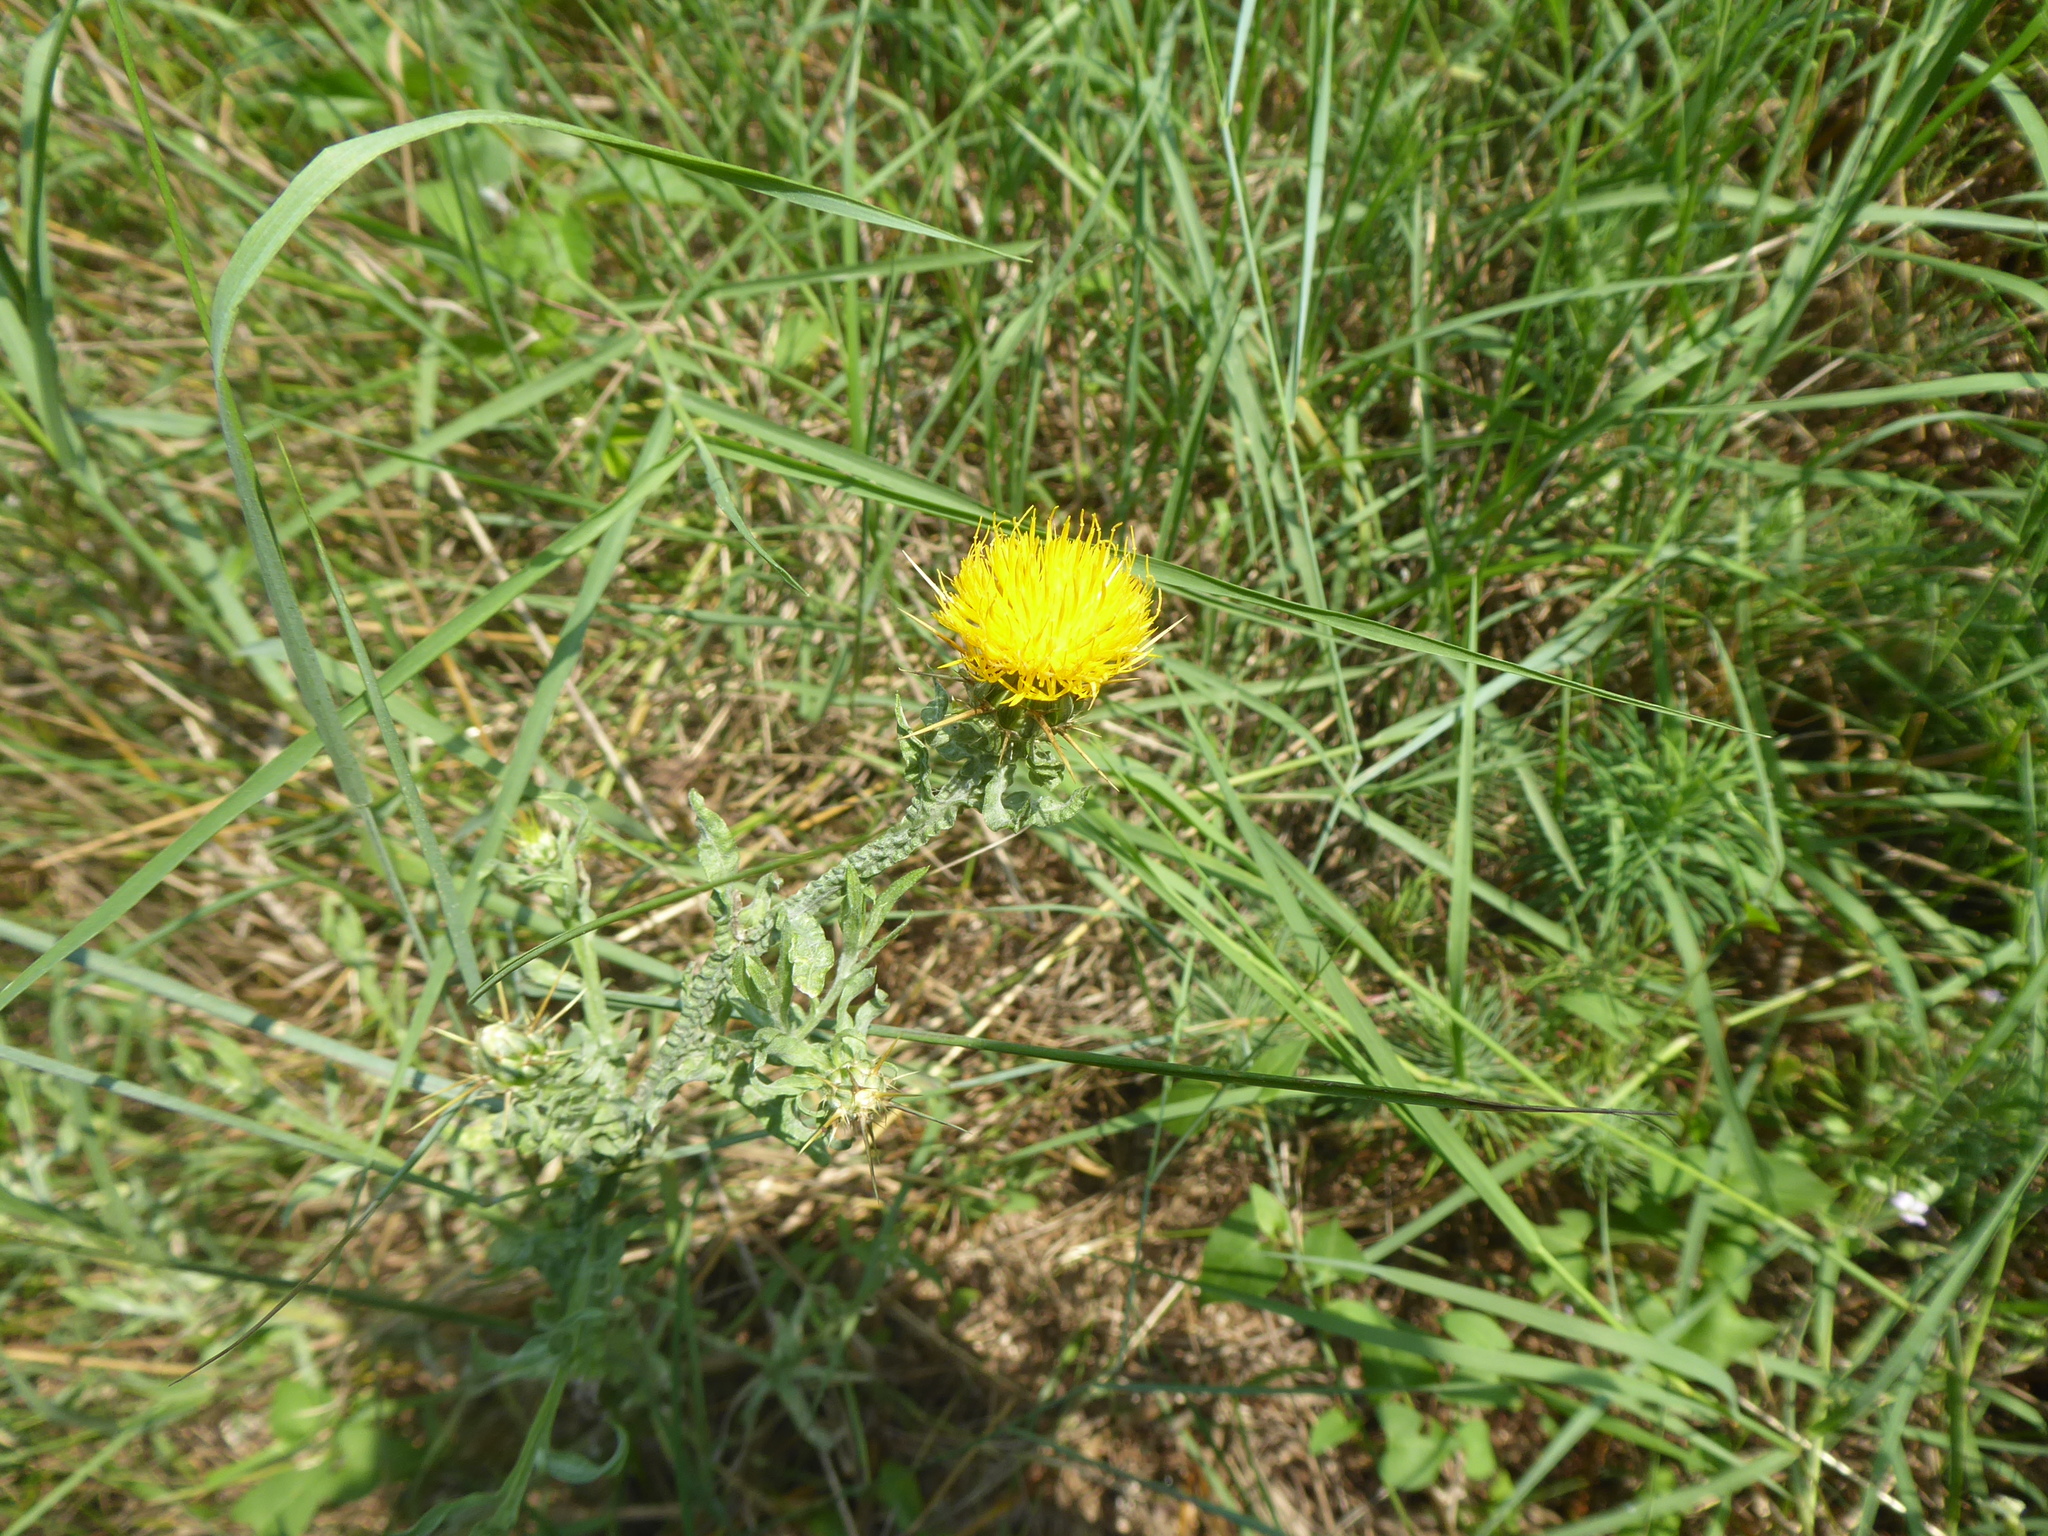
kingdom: Plantae
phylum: Tracheophyta
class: Magnoliopsida
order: Asterales
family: Asteraceae
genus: Centaurea
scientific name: Centaurea solstitialis
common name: Yellow star-thistle
